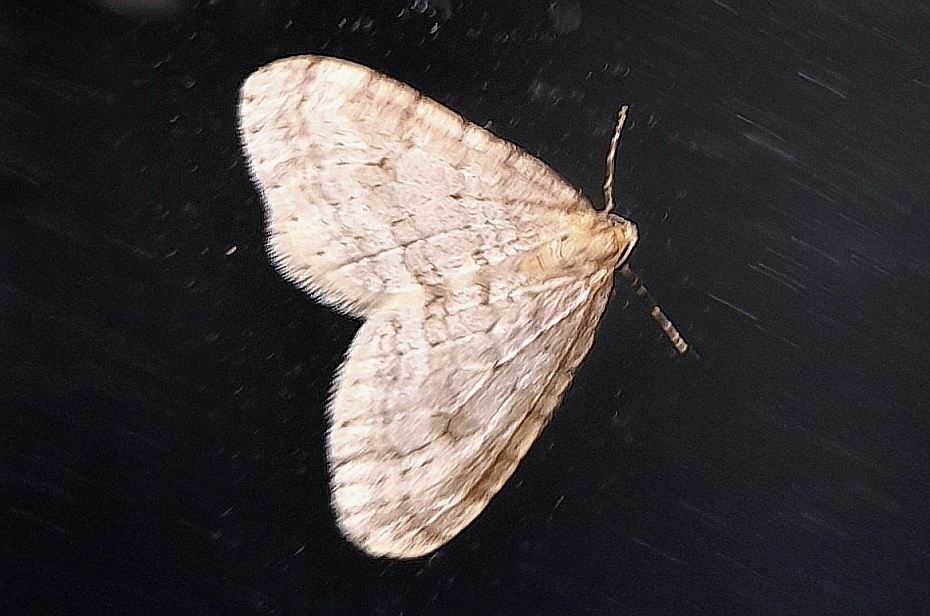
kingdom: Animalia
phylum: Arthropoda
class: Insecta
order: Lepidoptera
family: Geometridae
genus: Operophtera
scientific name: Operophtera brumata
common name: Winter moth
